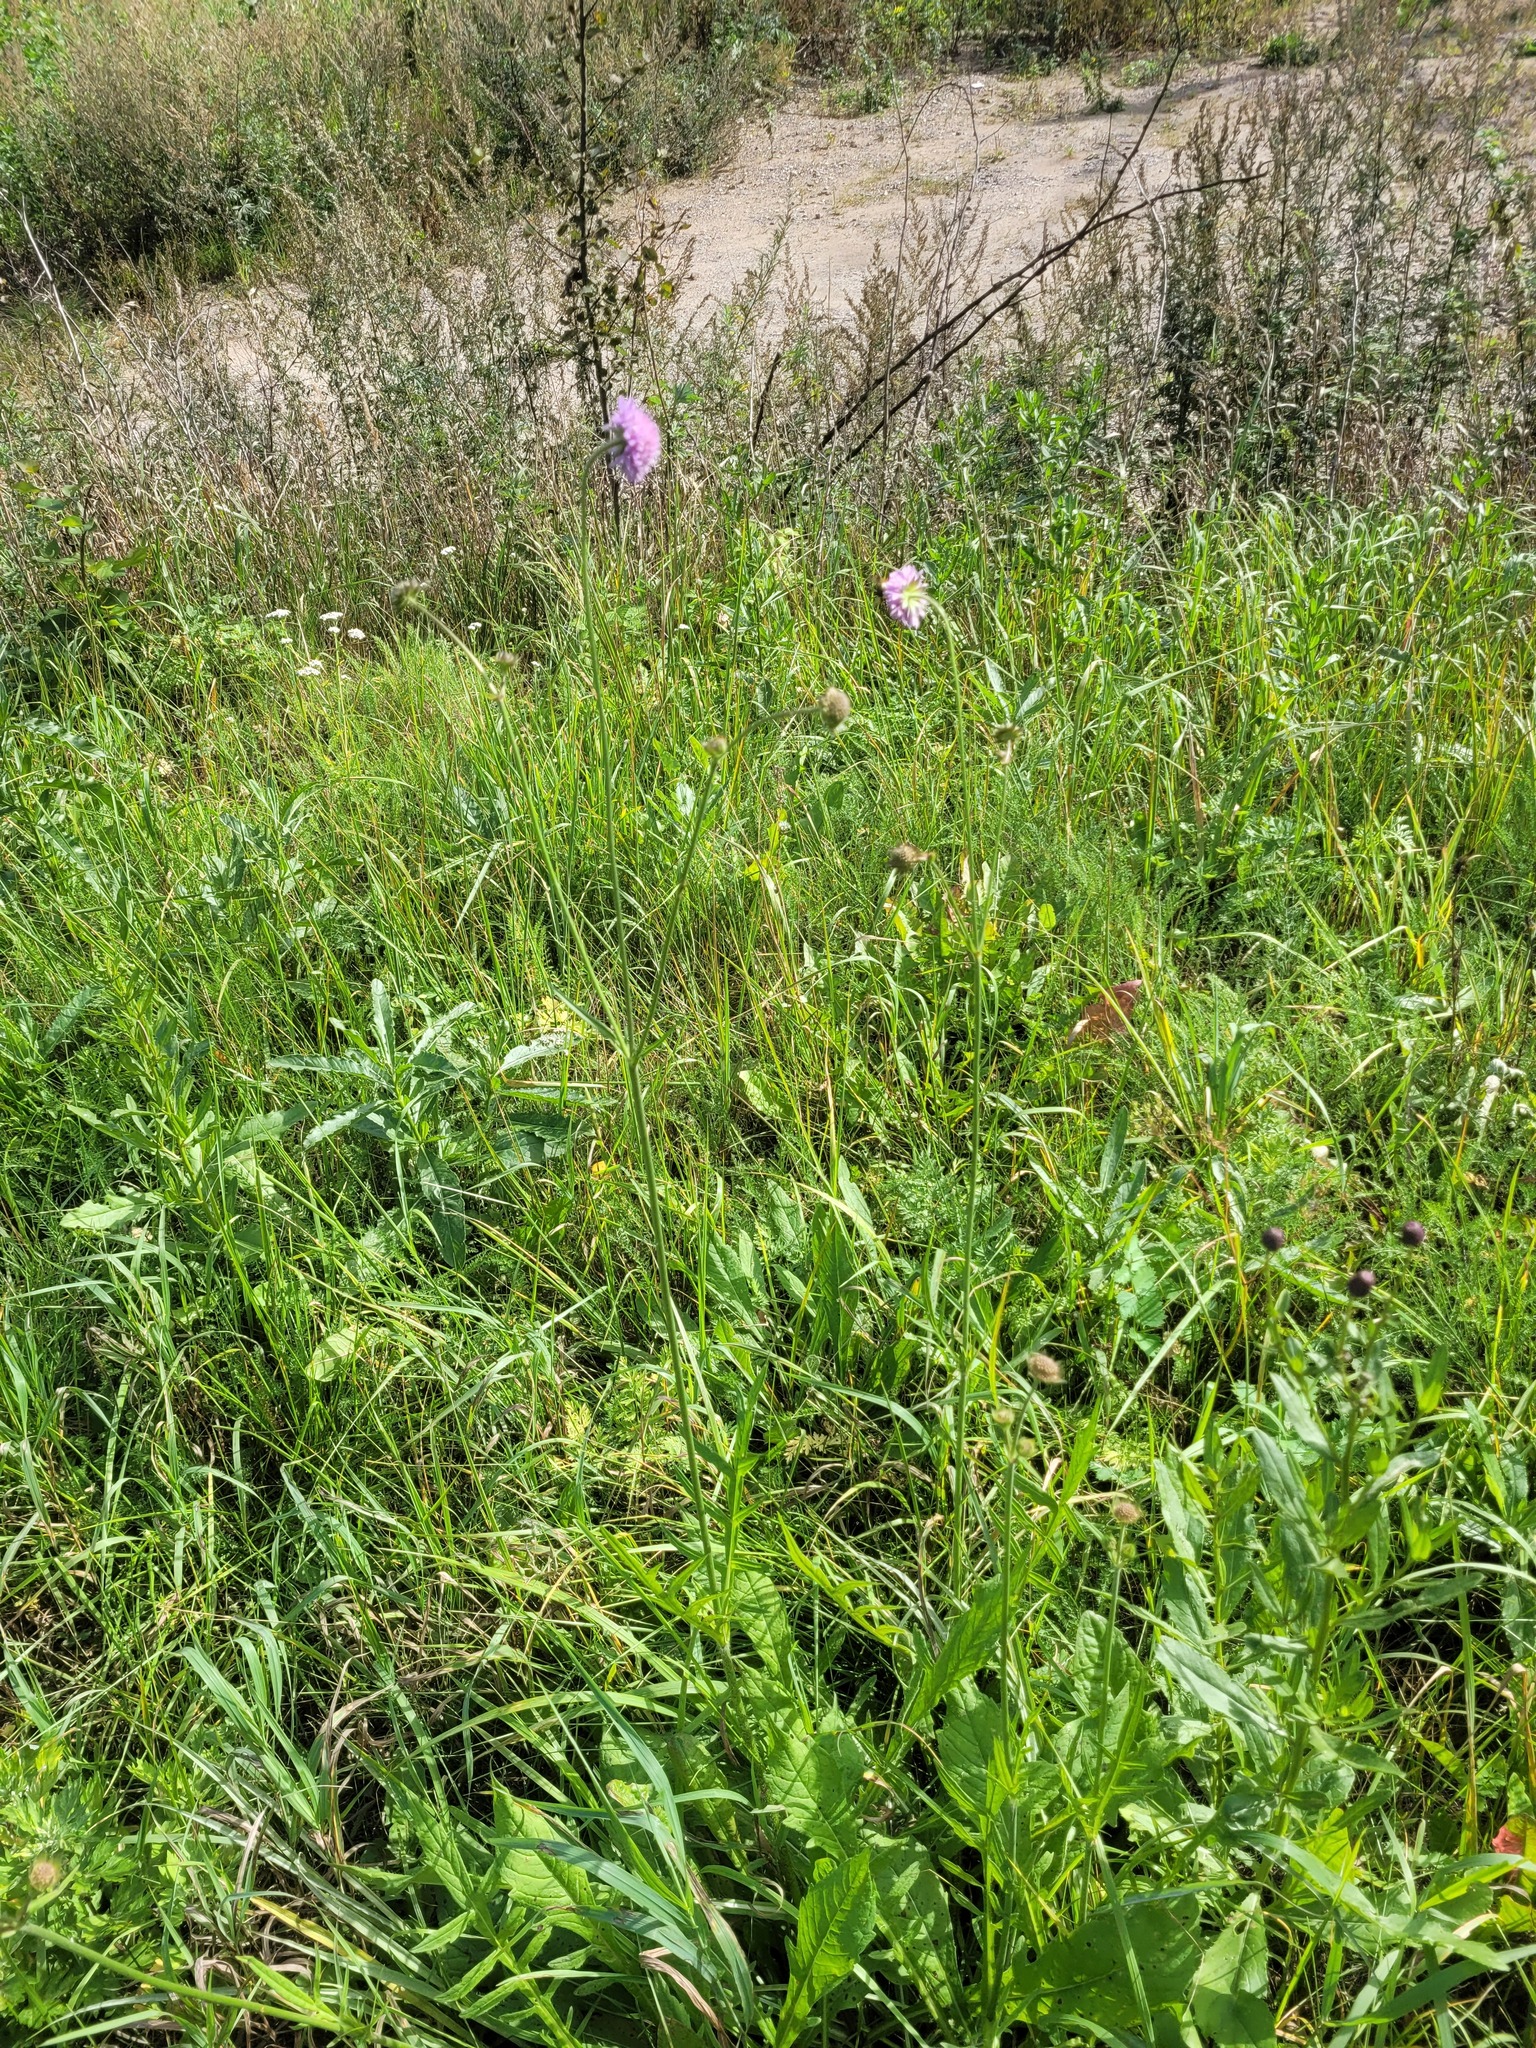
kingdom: Plantae
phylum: Tracheophyta
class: Magnoliopsida
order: Dipsacales
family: Caprifoliaceae
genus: Knautia
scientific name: Knautia arvensis
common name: Field scabiosa
